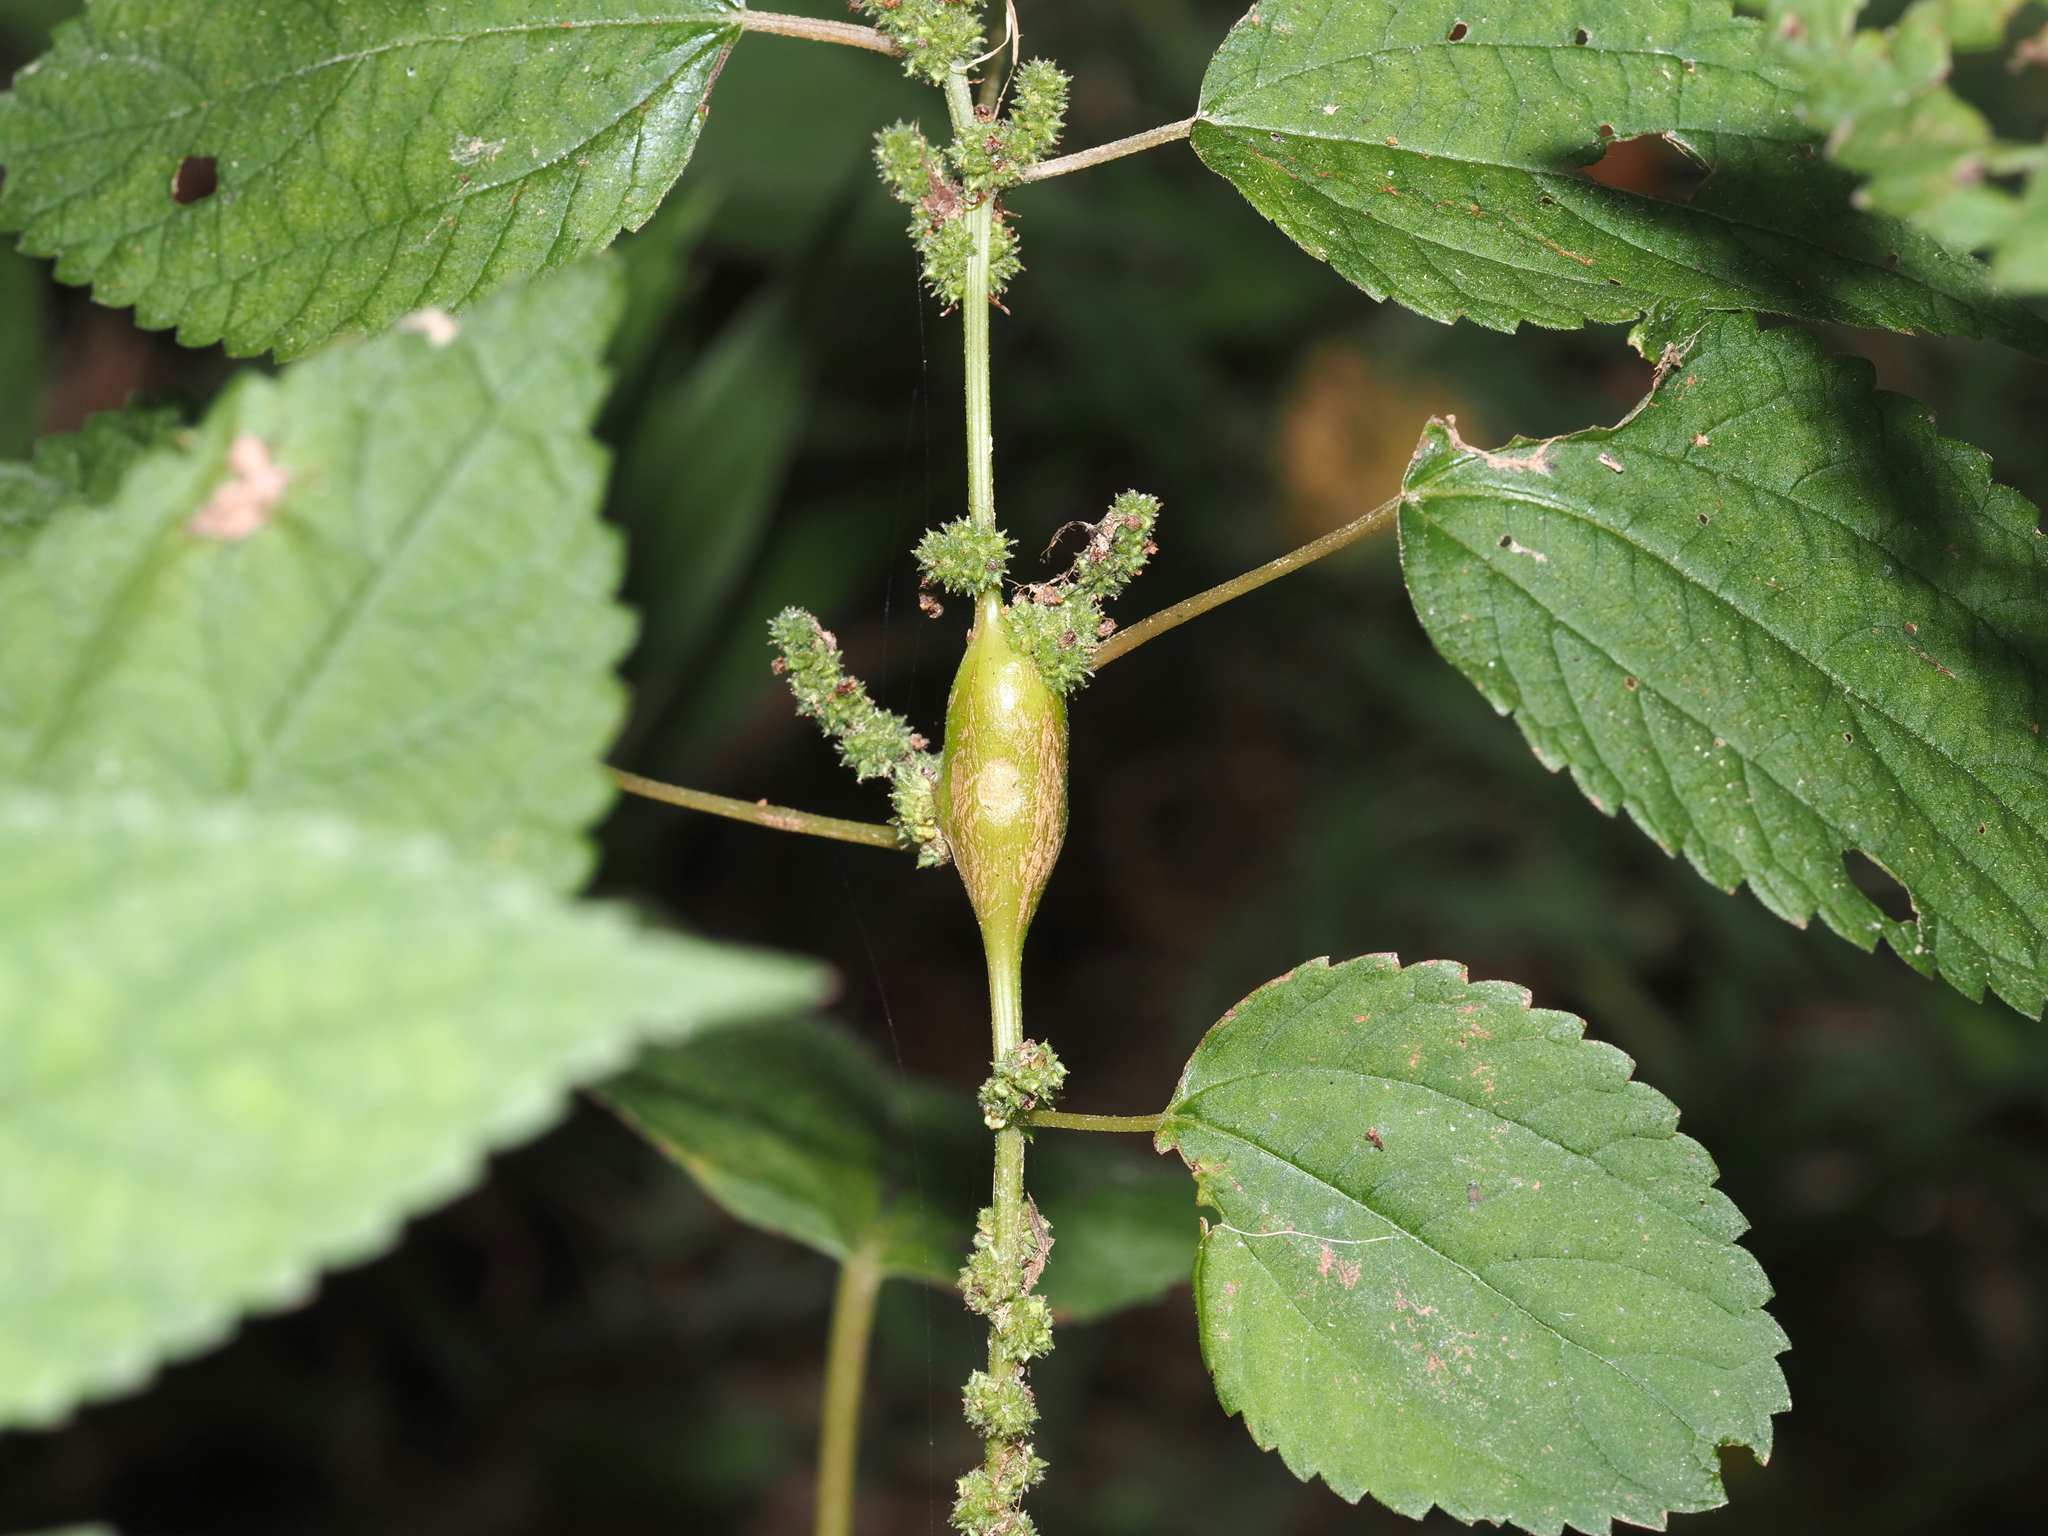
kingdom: Animalia
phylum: Arthropoda
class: Insecta
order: Diptera
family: Cecidomyiidae
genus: Neolasioptera
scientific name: Neolasioptera boehmeriae
